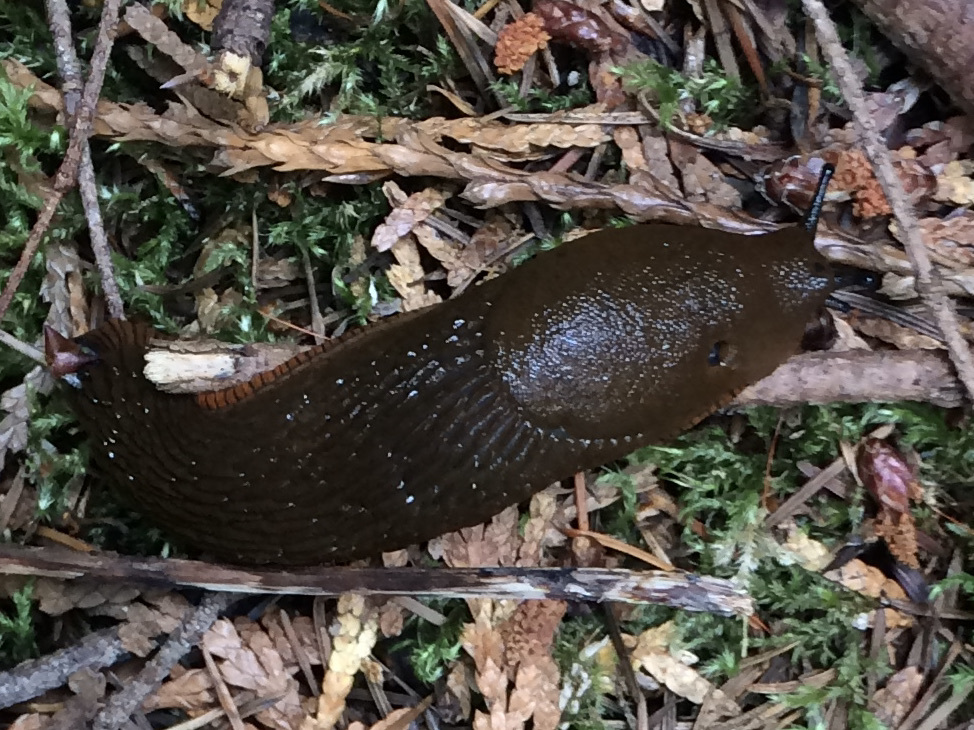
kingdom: Animalia
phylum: Mollusca
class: Gastropoda
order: Stylommatophora
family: Arionidae
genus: Arion
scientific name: Arion rufus
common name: Chocolate arion
